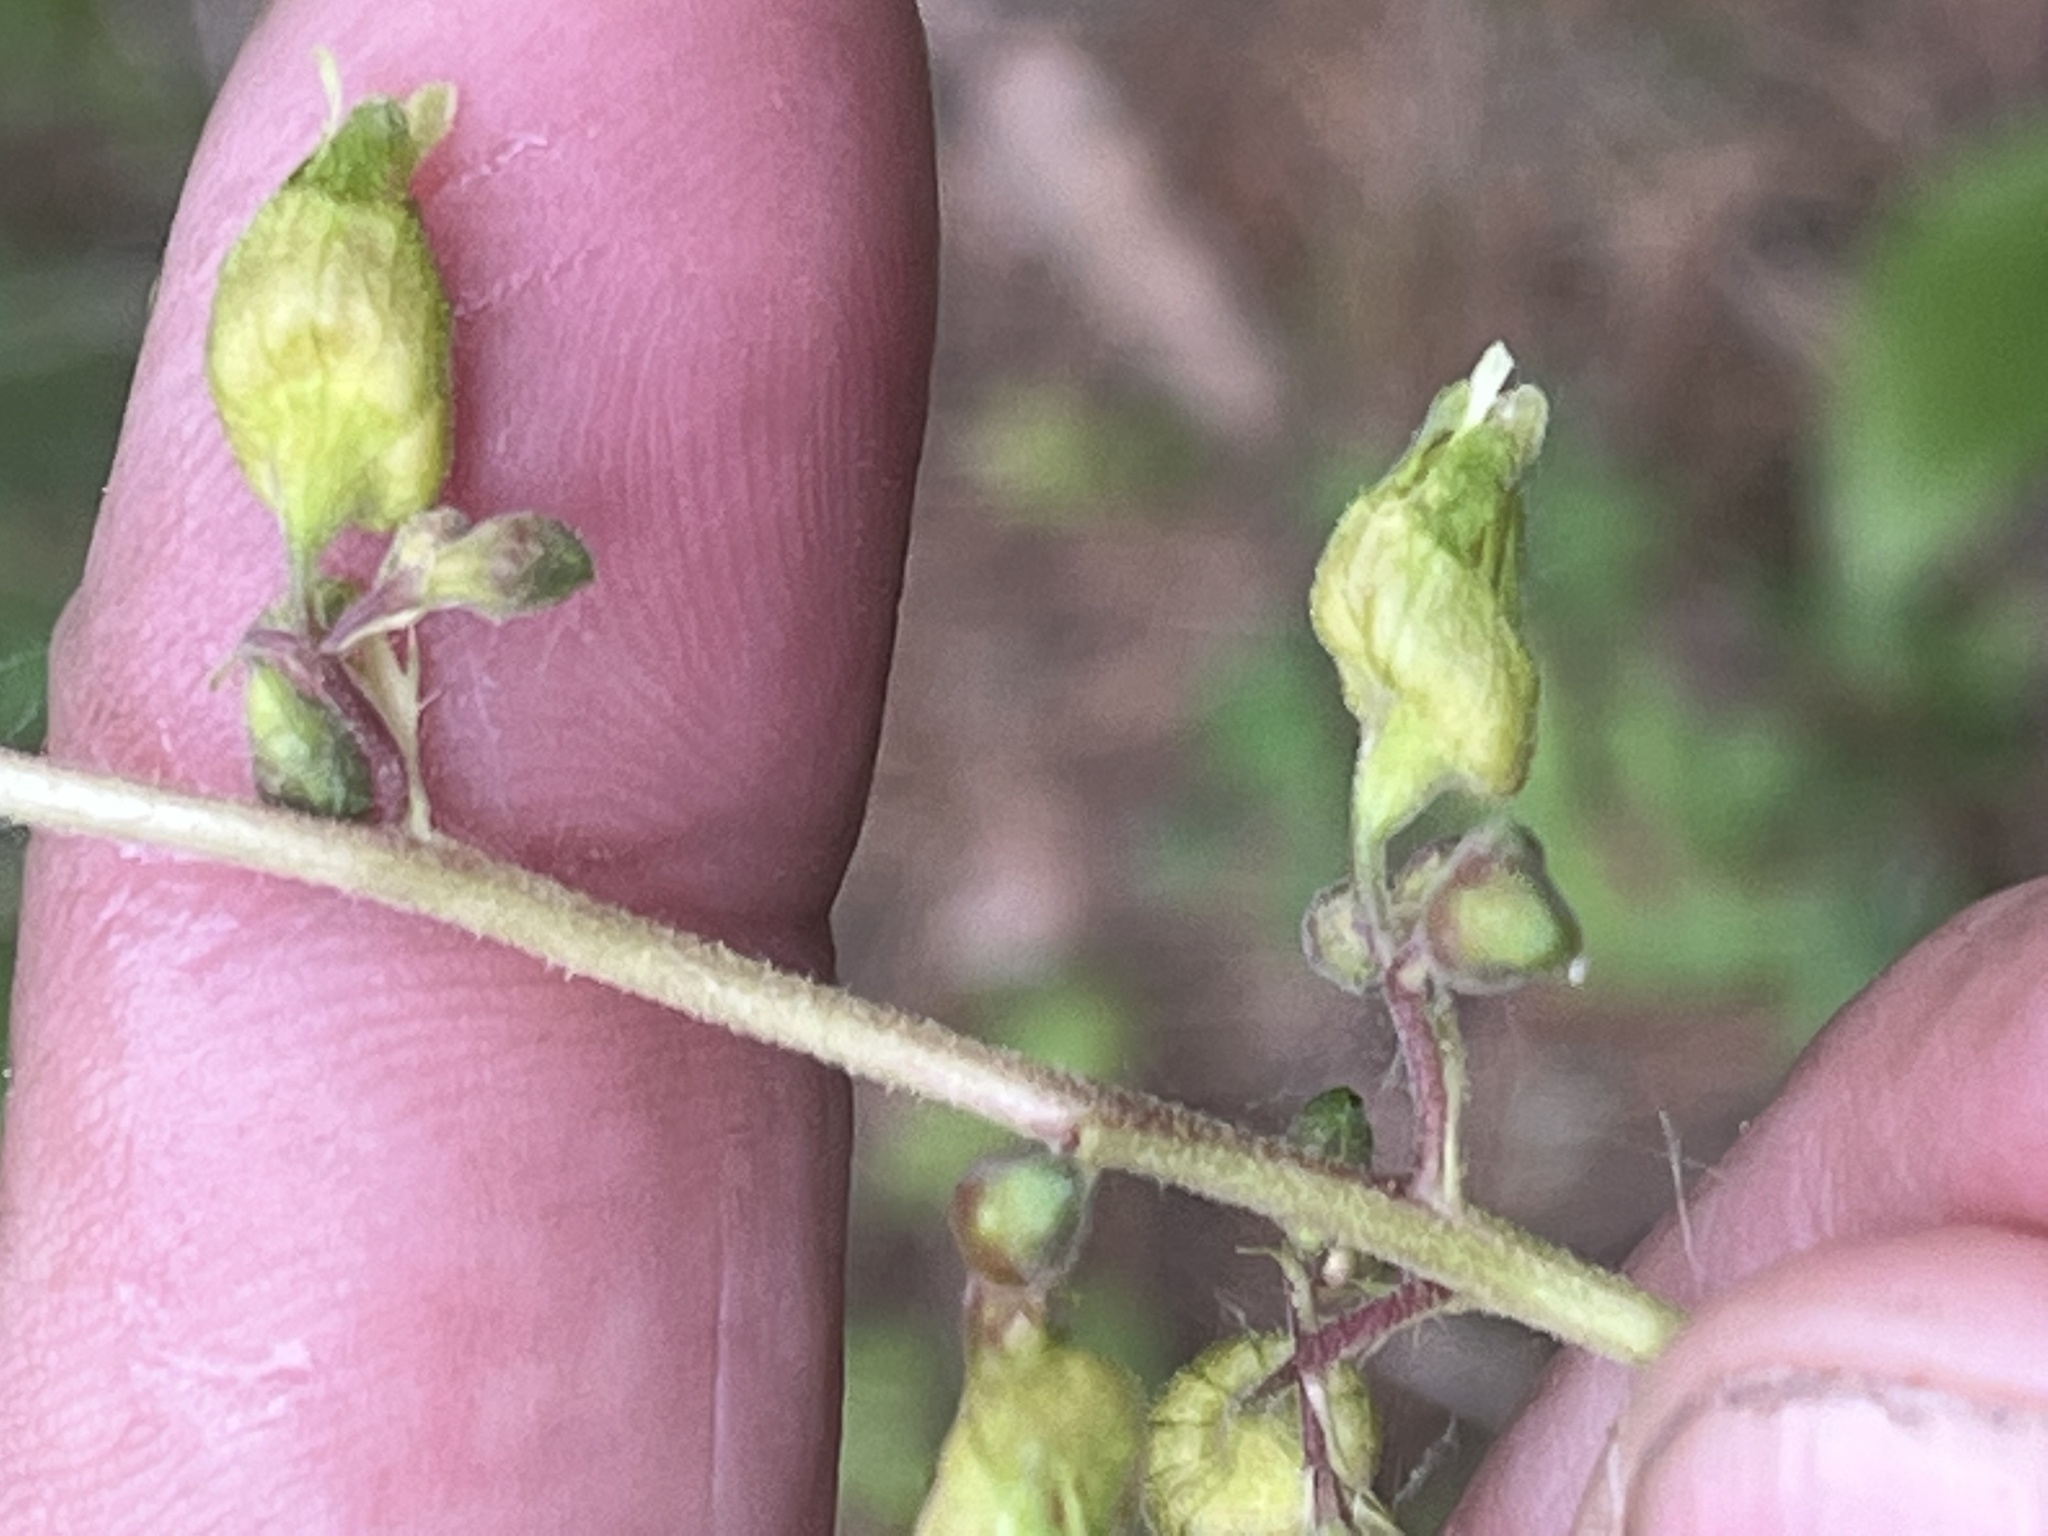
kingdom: Plantae
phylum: Tracheophyta
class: Magnoliopsida
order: Saxifragales
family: Saxifragaceae
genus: Heuchera
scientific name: Heuchera richardsonii
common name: Richardson's alumroot
